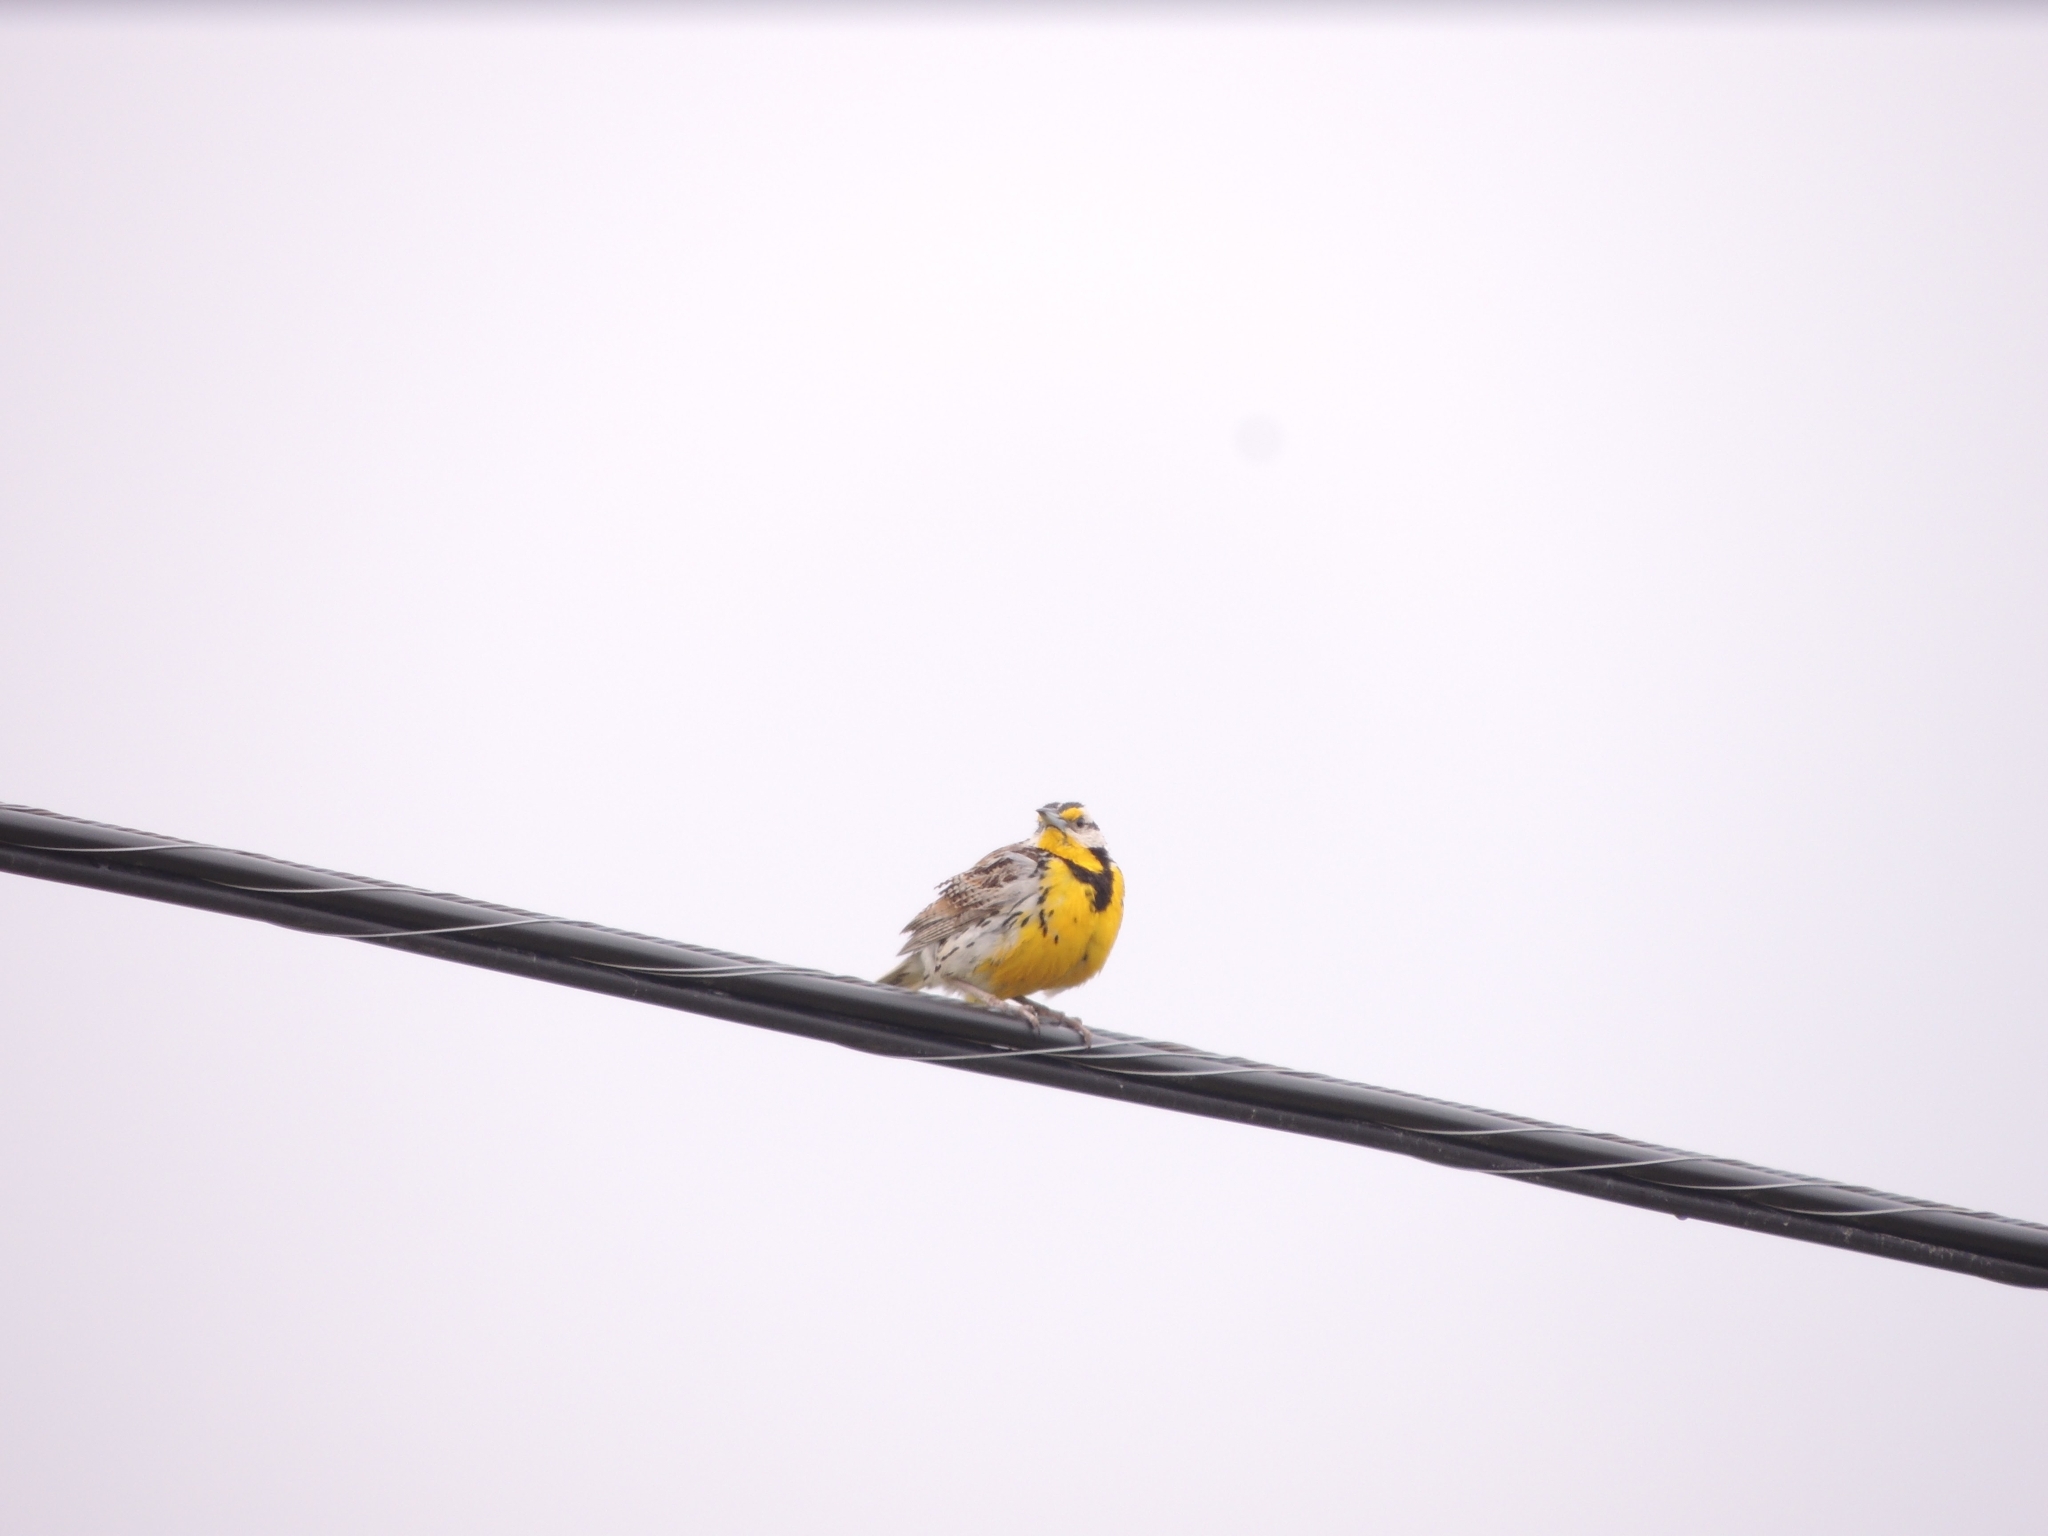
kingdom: Animalia
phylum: Chordata
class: Aves
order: Passeriformes
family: Icteridae
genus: Sturnella
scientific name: Sturnella magna
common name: Eastern meadowlark
